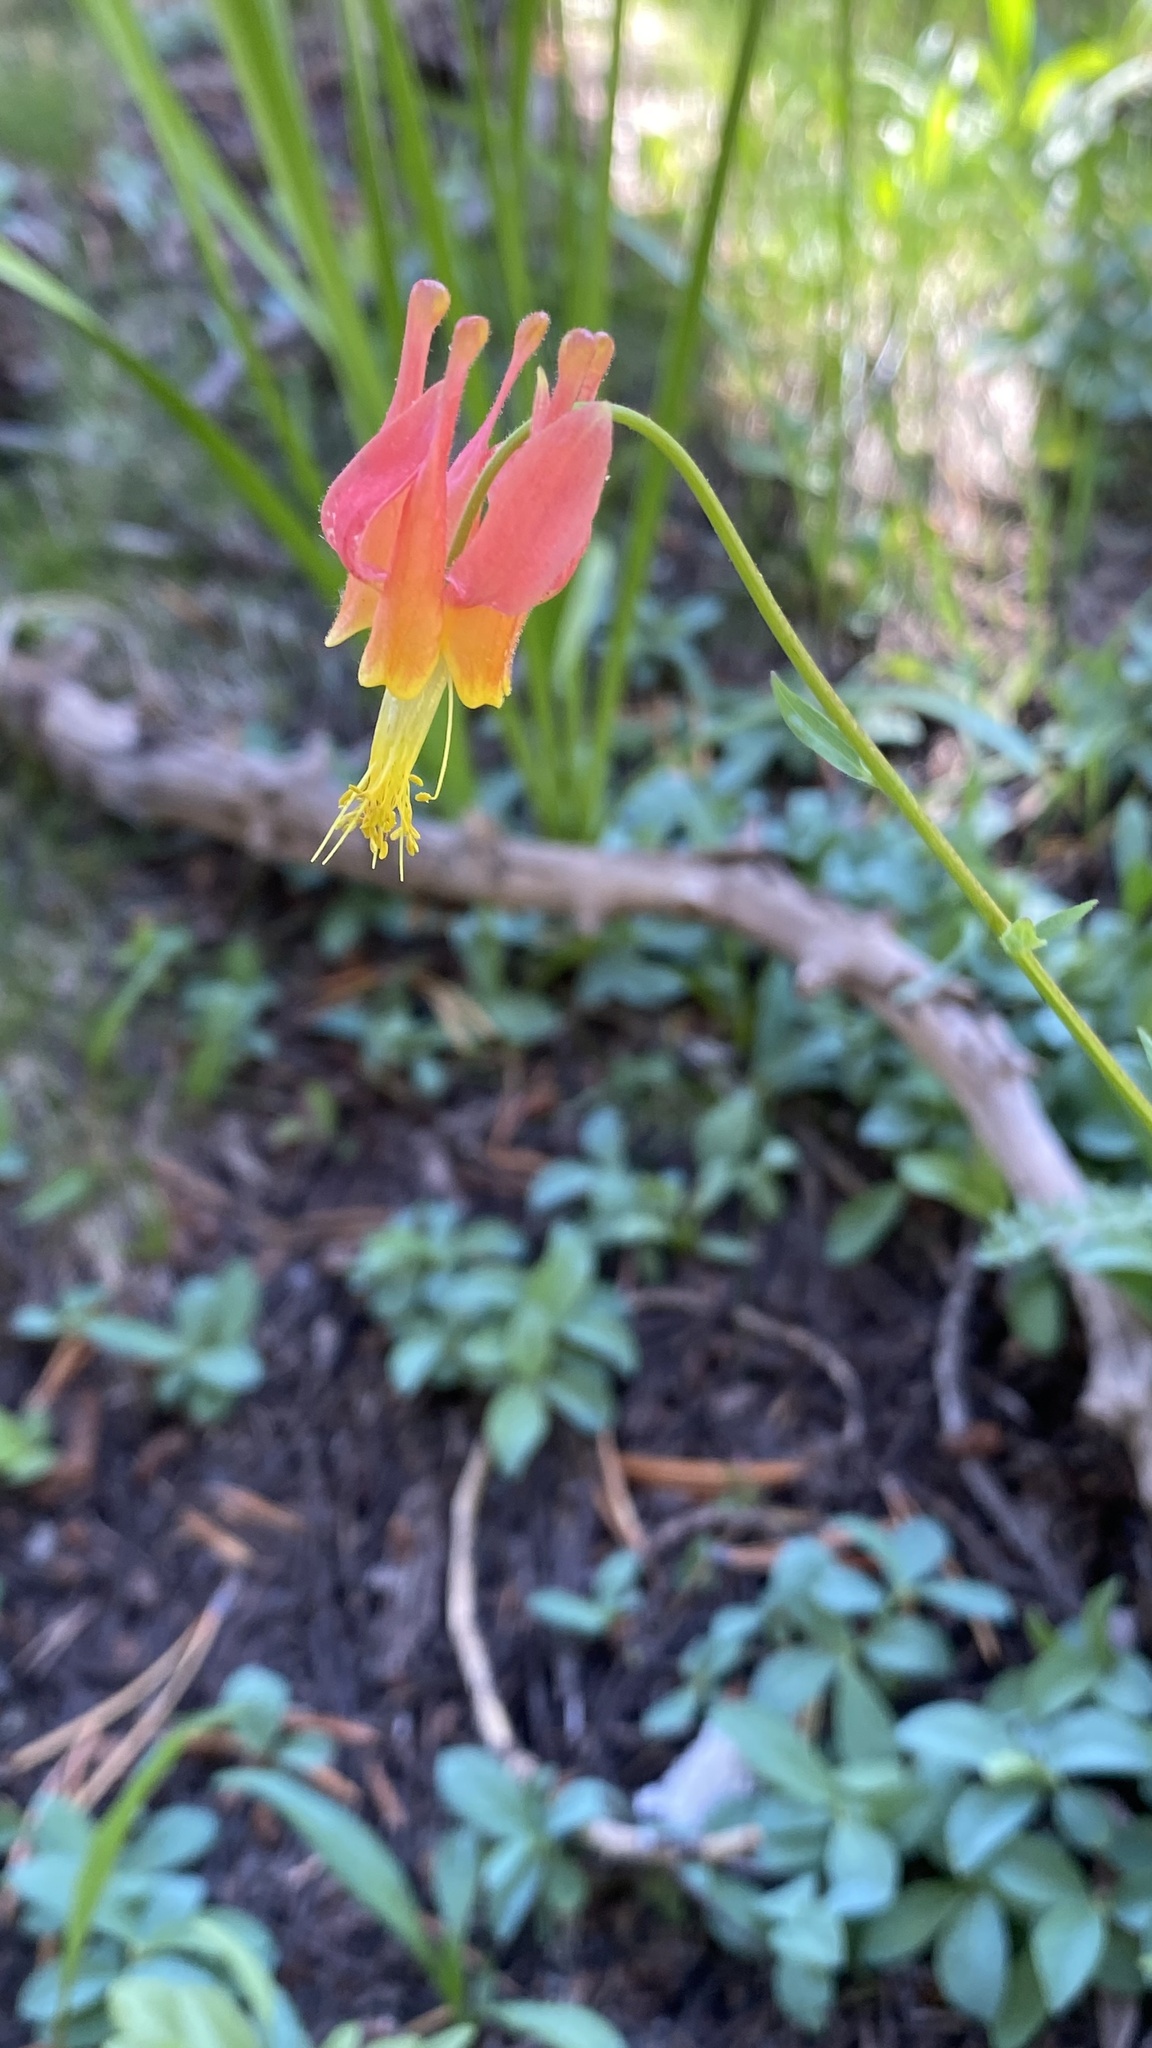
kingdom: Plantae
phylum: Tracheophyta
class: Magnoliopsida
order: Ranunculales
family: Ranunculaceae
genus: Aquilegia
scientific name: Aquilegia formosa
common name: Sitka columbine
